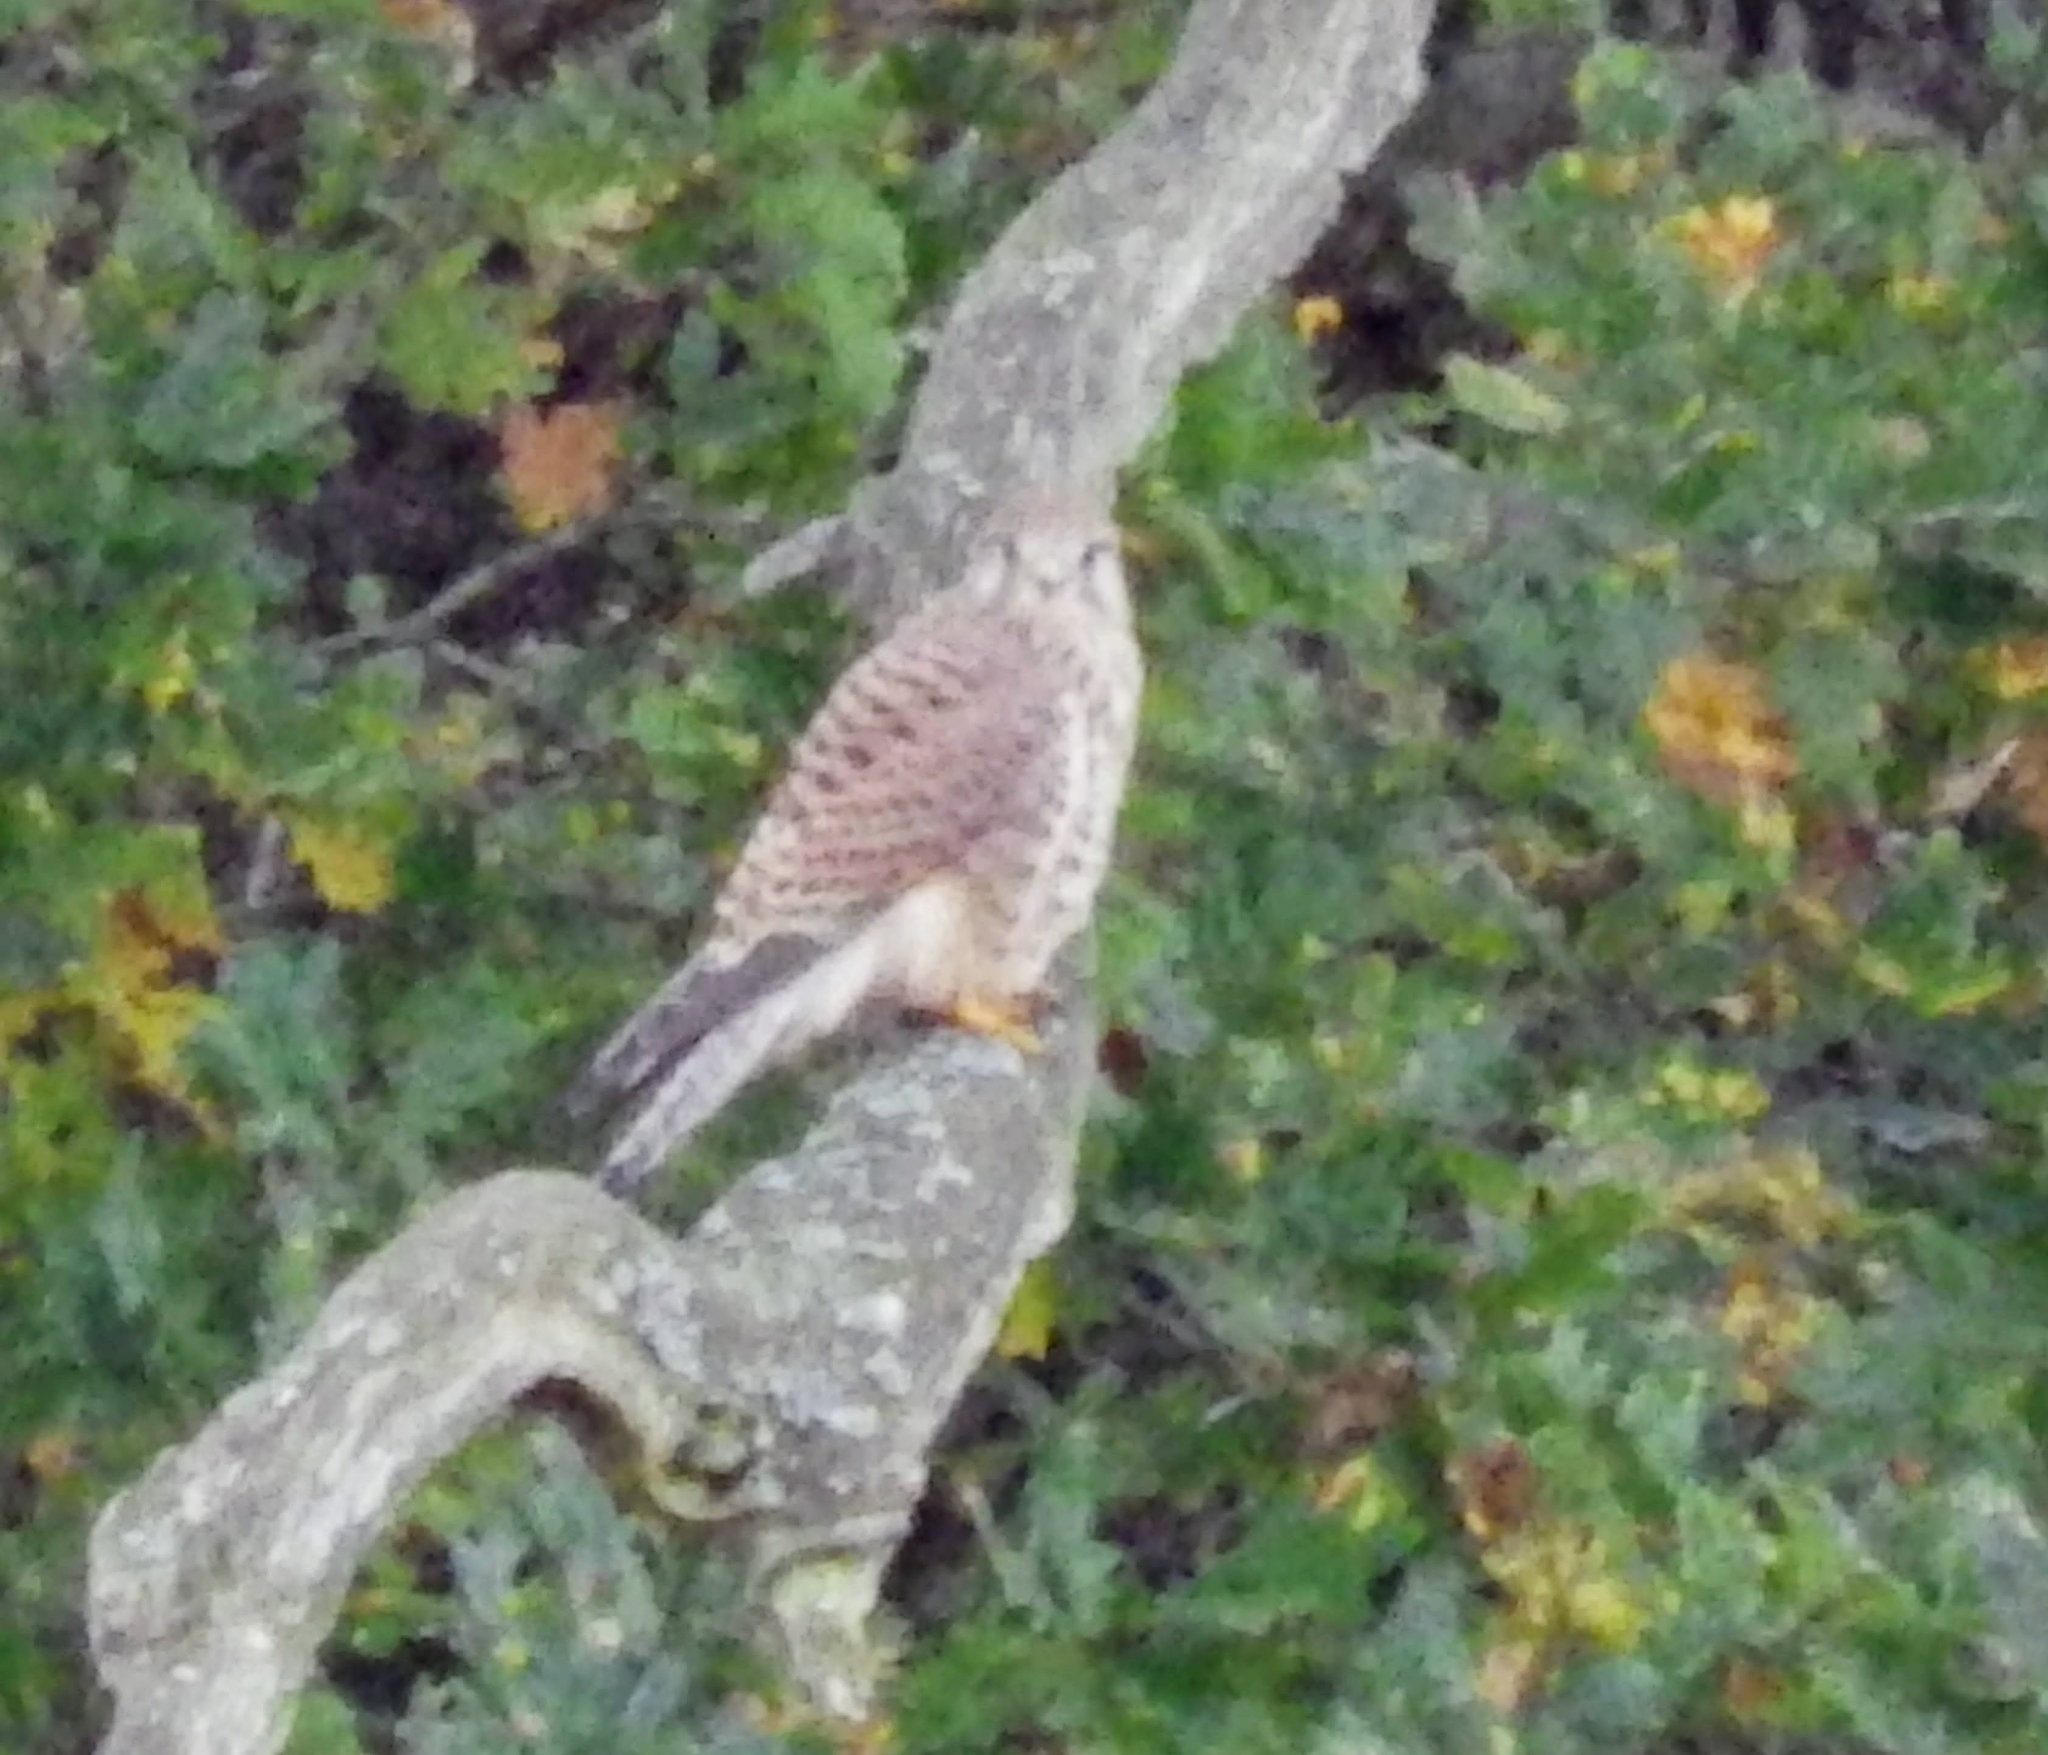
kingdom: Animalia
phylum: Chordata
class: Aves
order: Falconiformes
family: Falconidae
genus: Falco
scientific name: Falco tinnunculus
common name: Common kestrel
